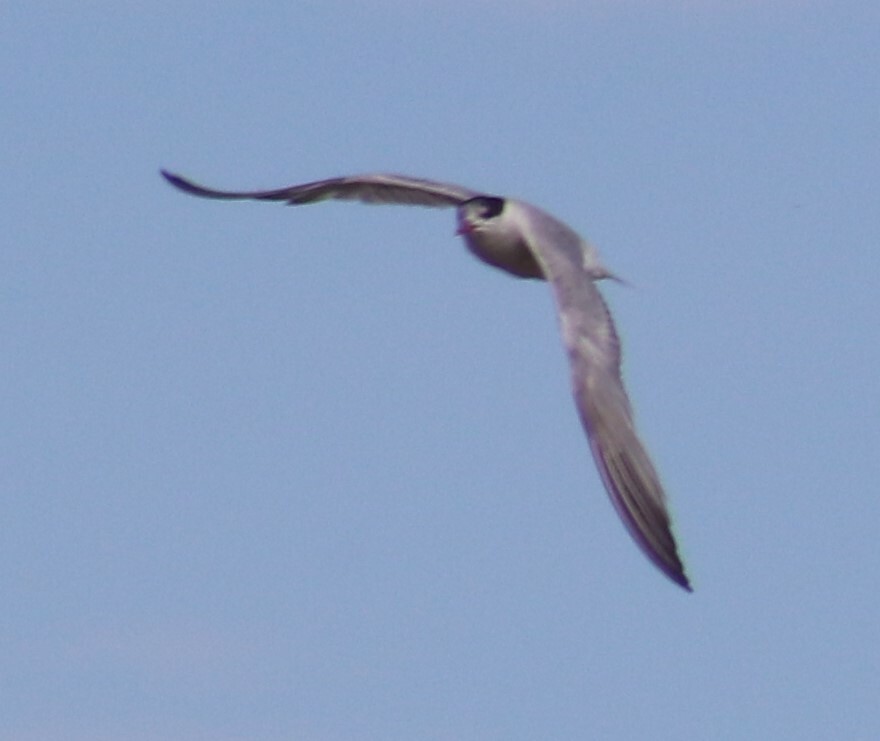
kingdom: Animalia
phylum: Chordata
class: Aves
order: Charadriiformes
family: Laridae
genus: Sterna
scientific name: Sterna forsteri
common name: Forster's tern
